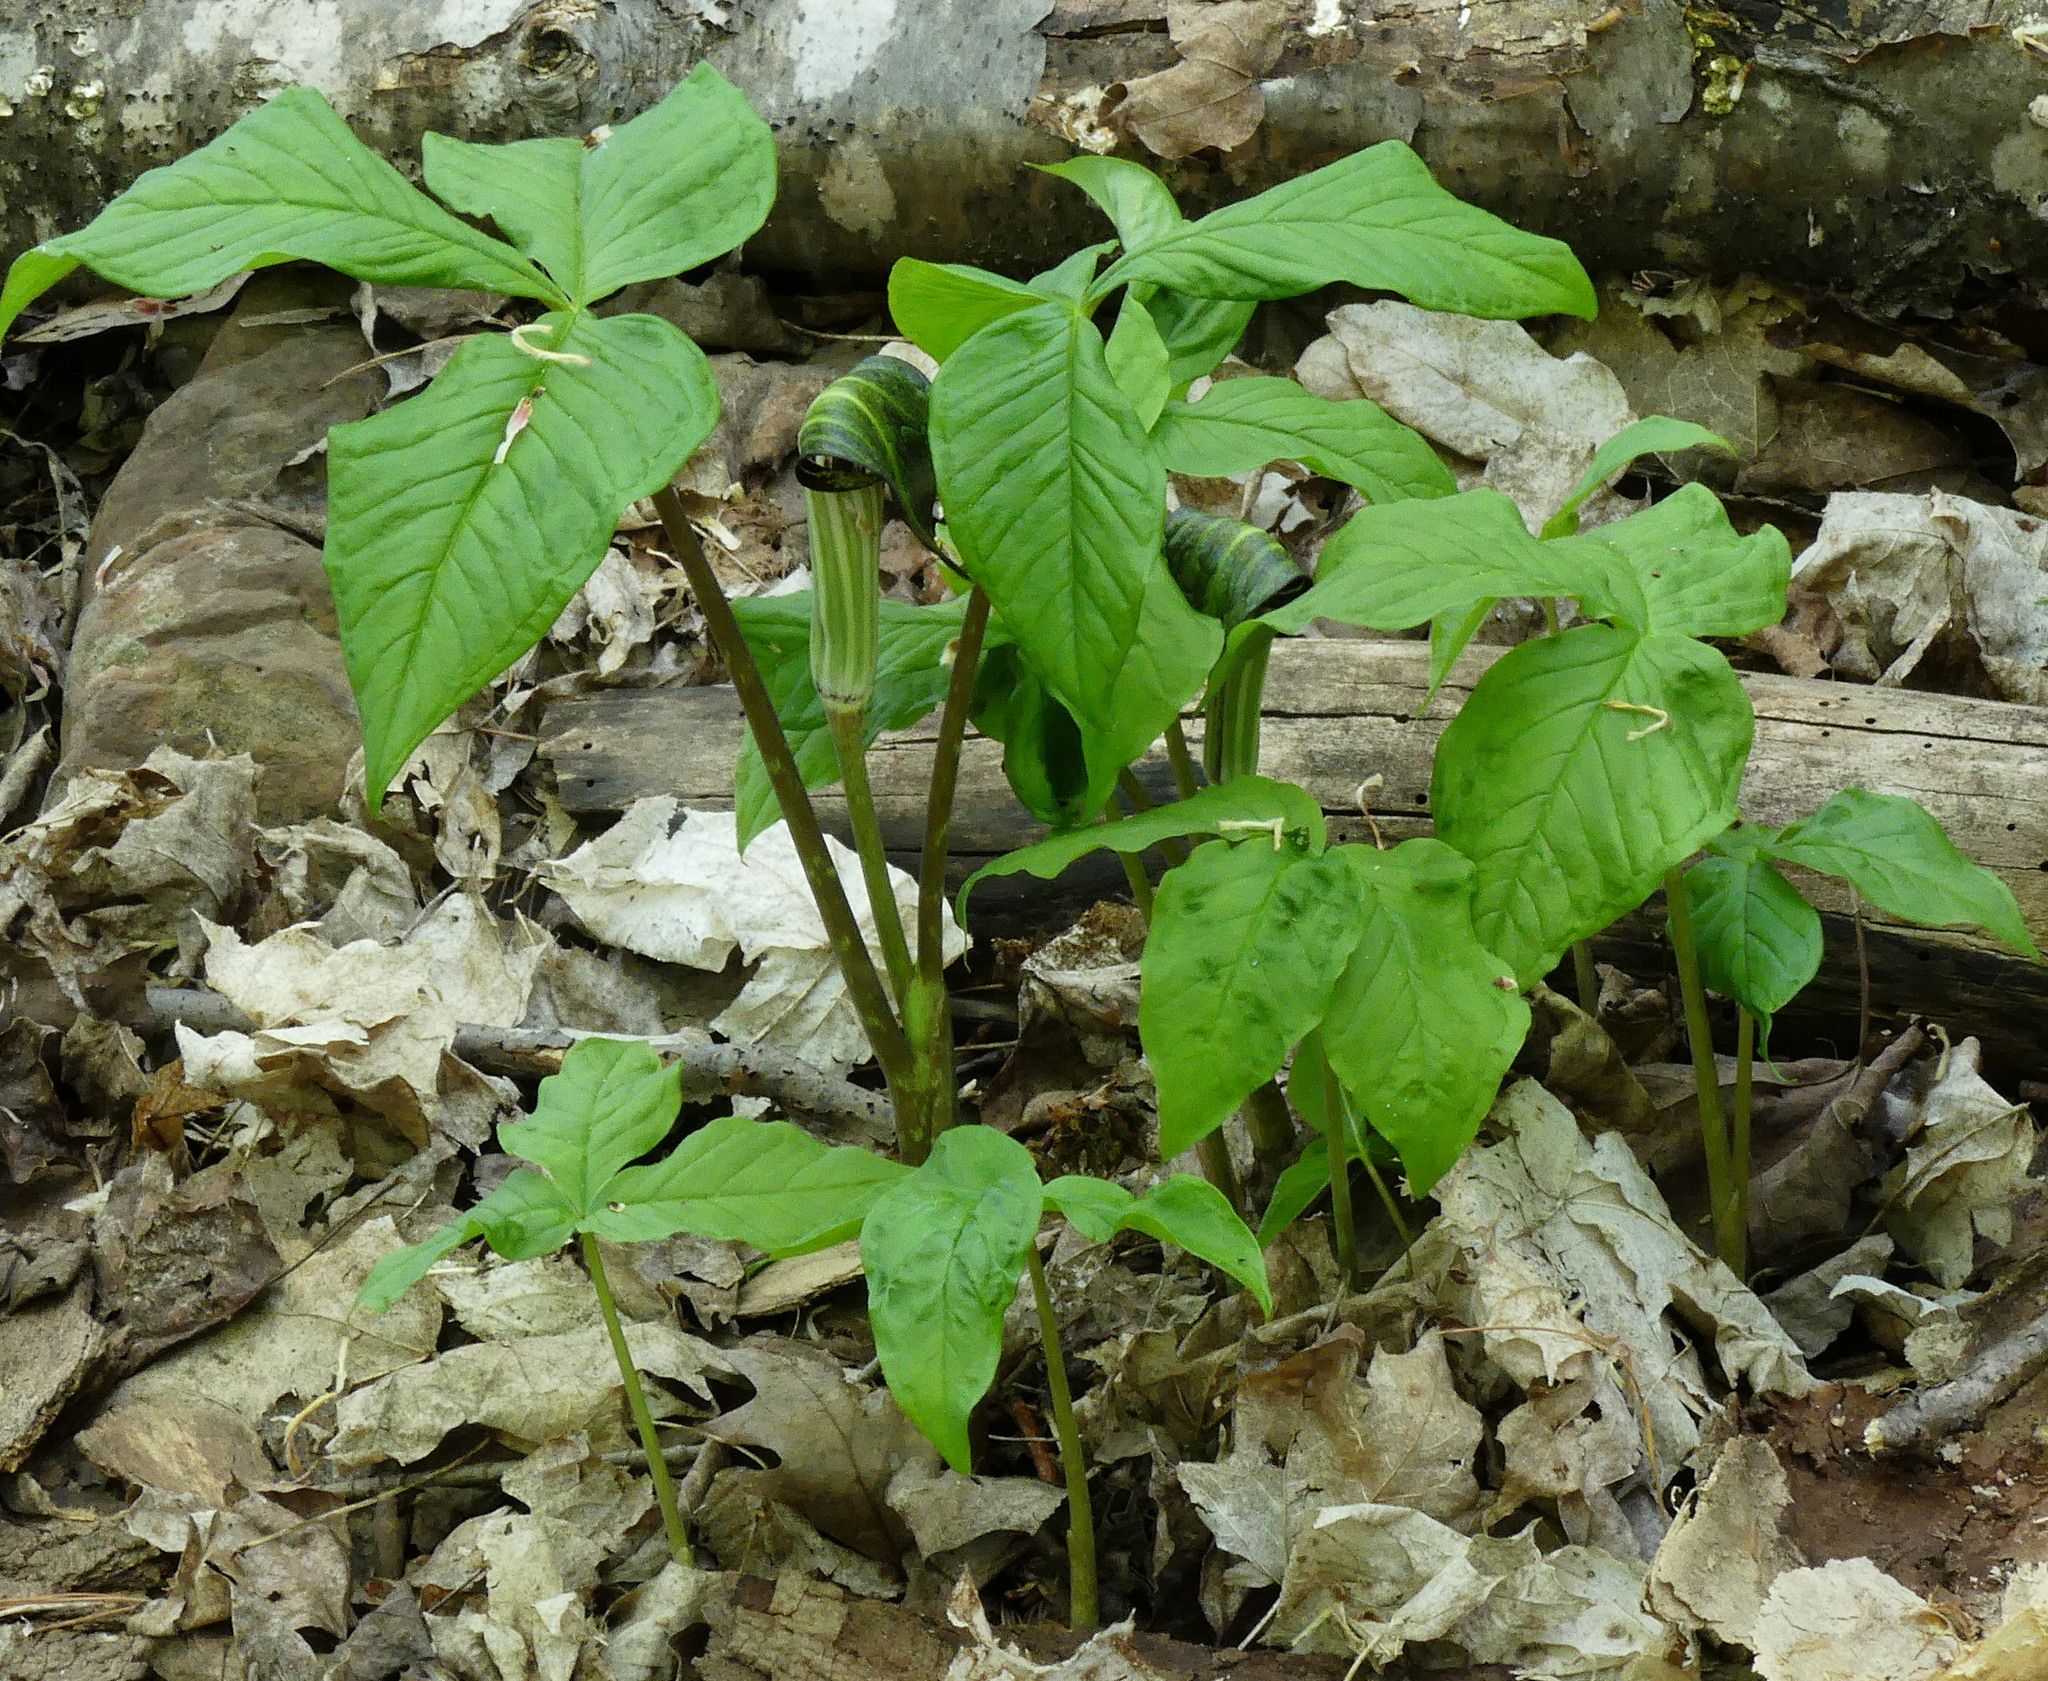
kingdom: Plantae
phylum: Tracheophyta
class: Liliopsida
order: Alismatales
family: Araceae
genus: Arisaema
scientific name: Arisaema triphyllum
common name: Jack-in-the-pulpit
